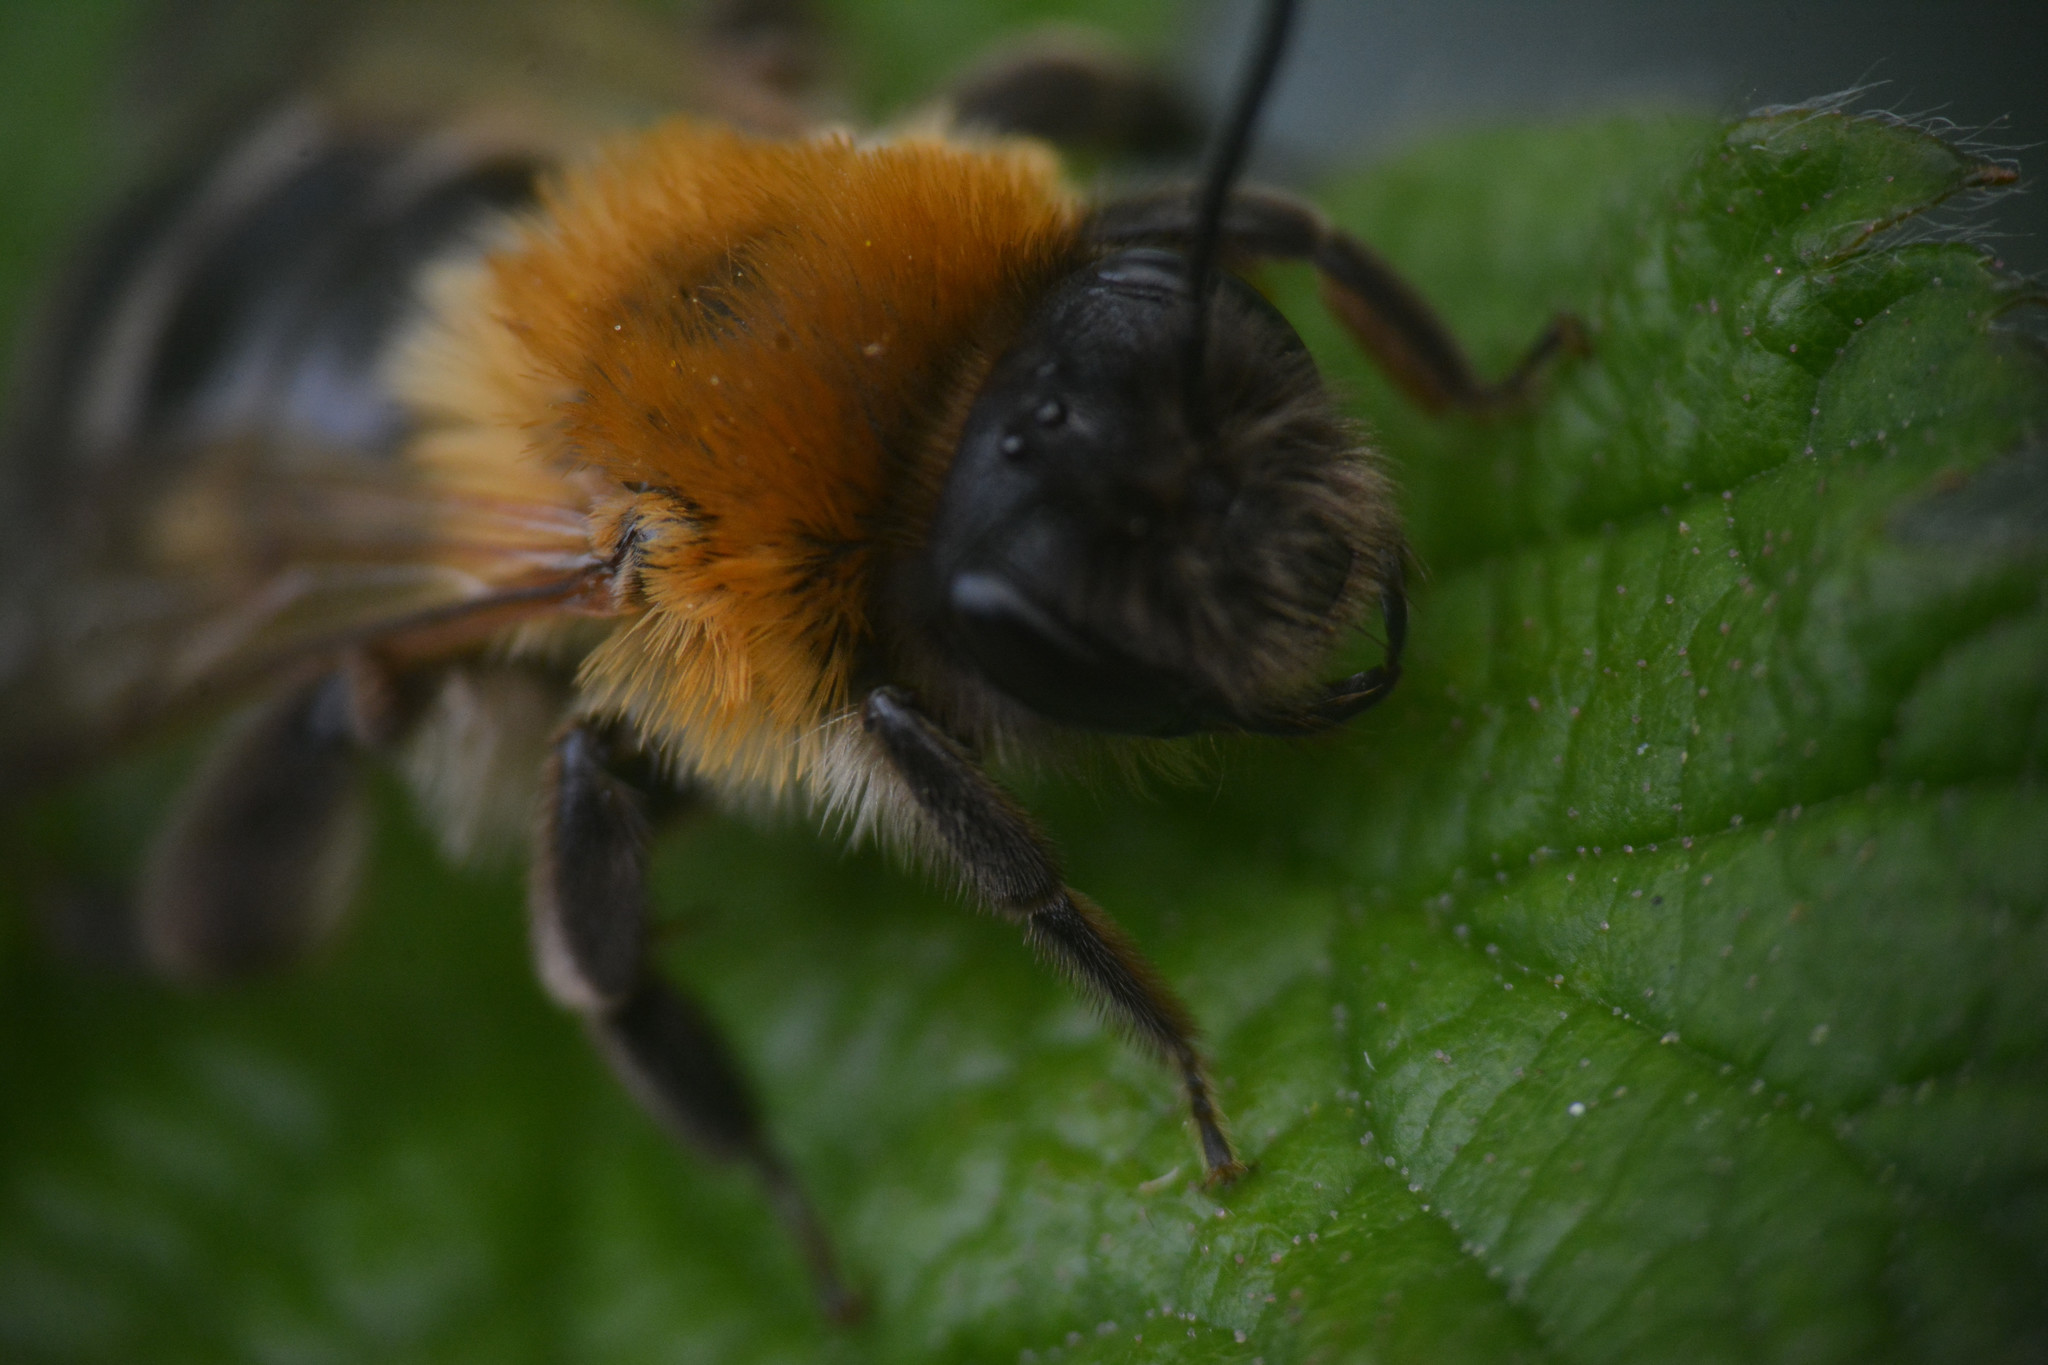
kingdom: Animalia
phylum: Arthropoda
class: Insecta
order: Hymenoptera
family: Andrenidae
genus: Andrena
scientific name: Andrena nitida
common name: Grey-patched mining bee
